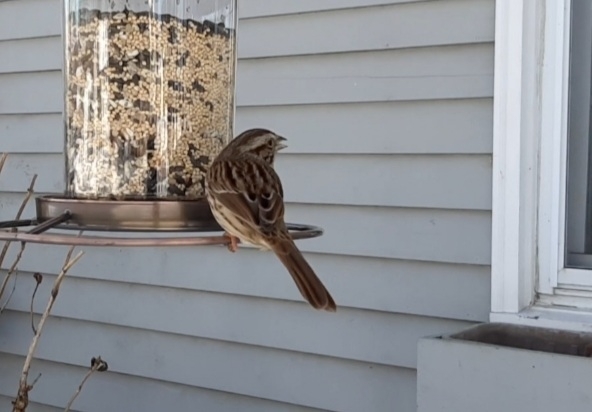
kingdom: Animalia
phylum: Chordata
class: Aves
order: Passeriformes
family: Passerellidae
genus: Melospiza
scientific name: Melospiza melodia
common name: Song sparrow
